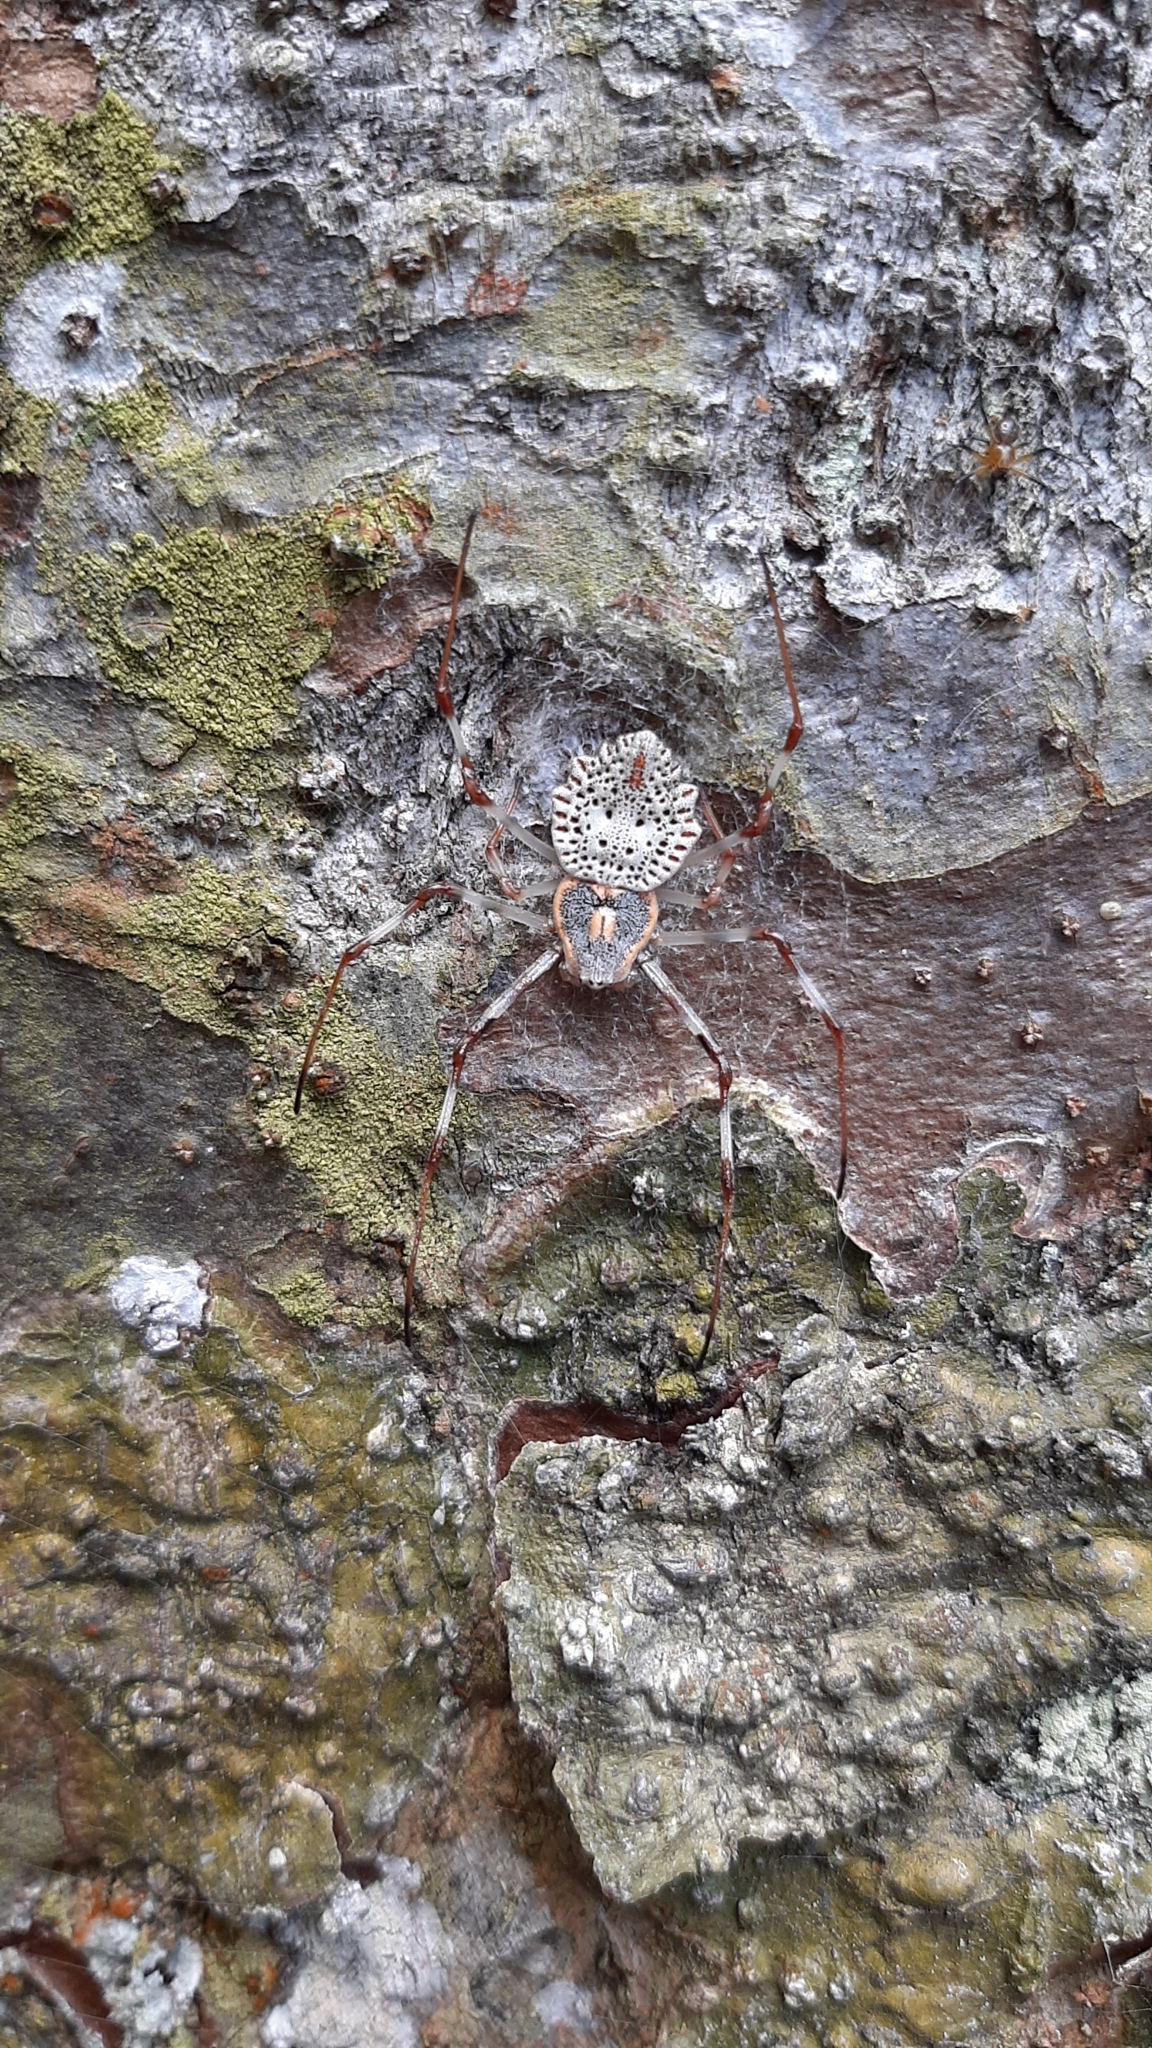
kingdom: Animalia
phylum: Arthropoda
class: Arachnida
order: Araneae
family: Araneidae
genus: Herennia
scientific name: Herennia multipuncta
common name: Spotted coin spider
